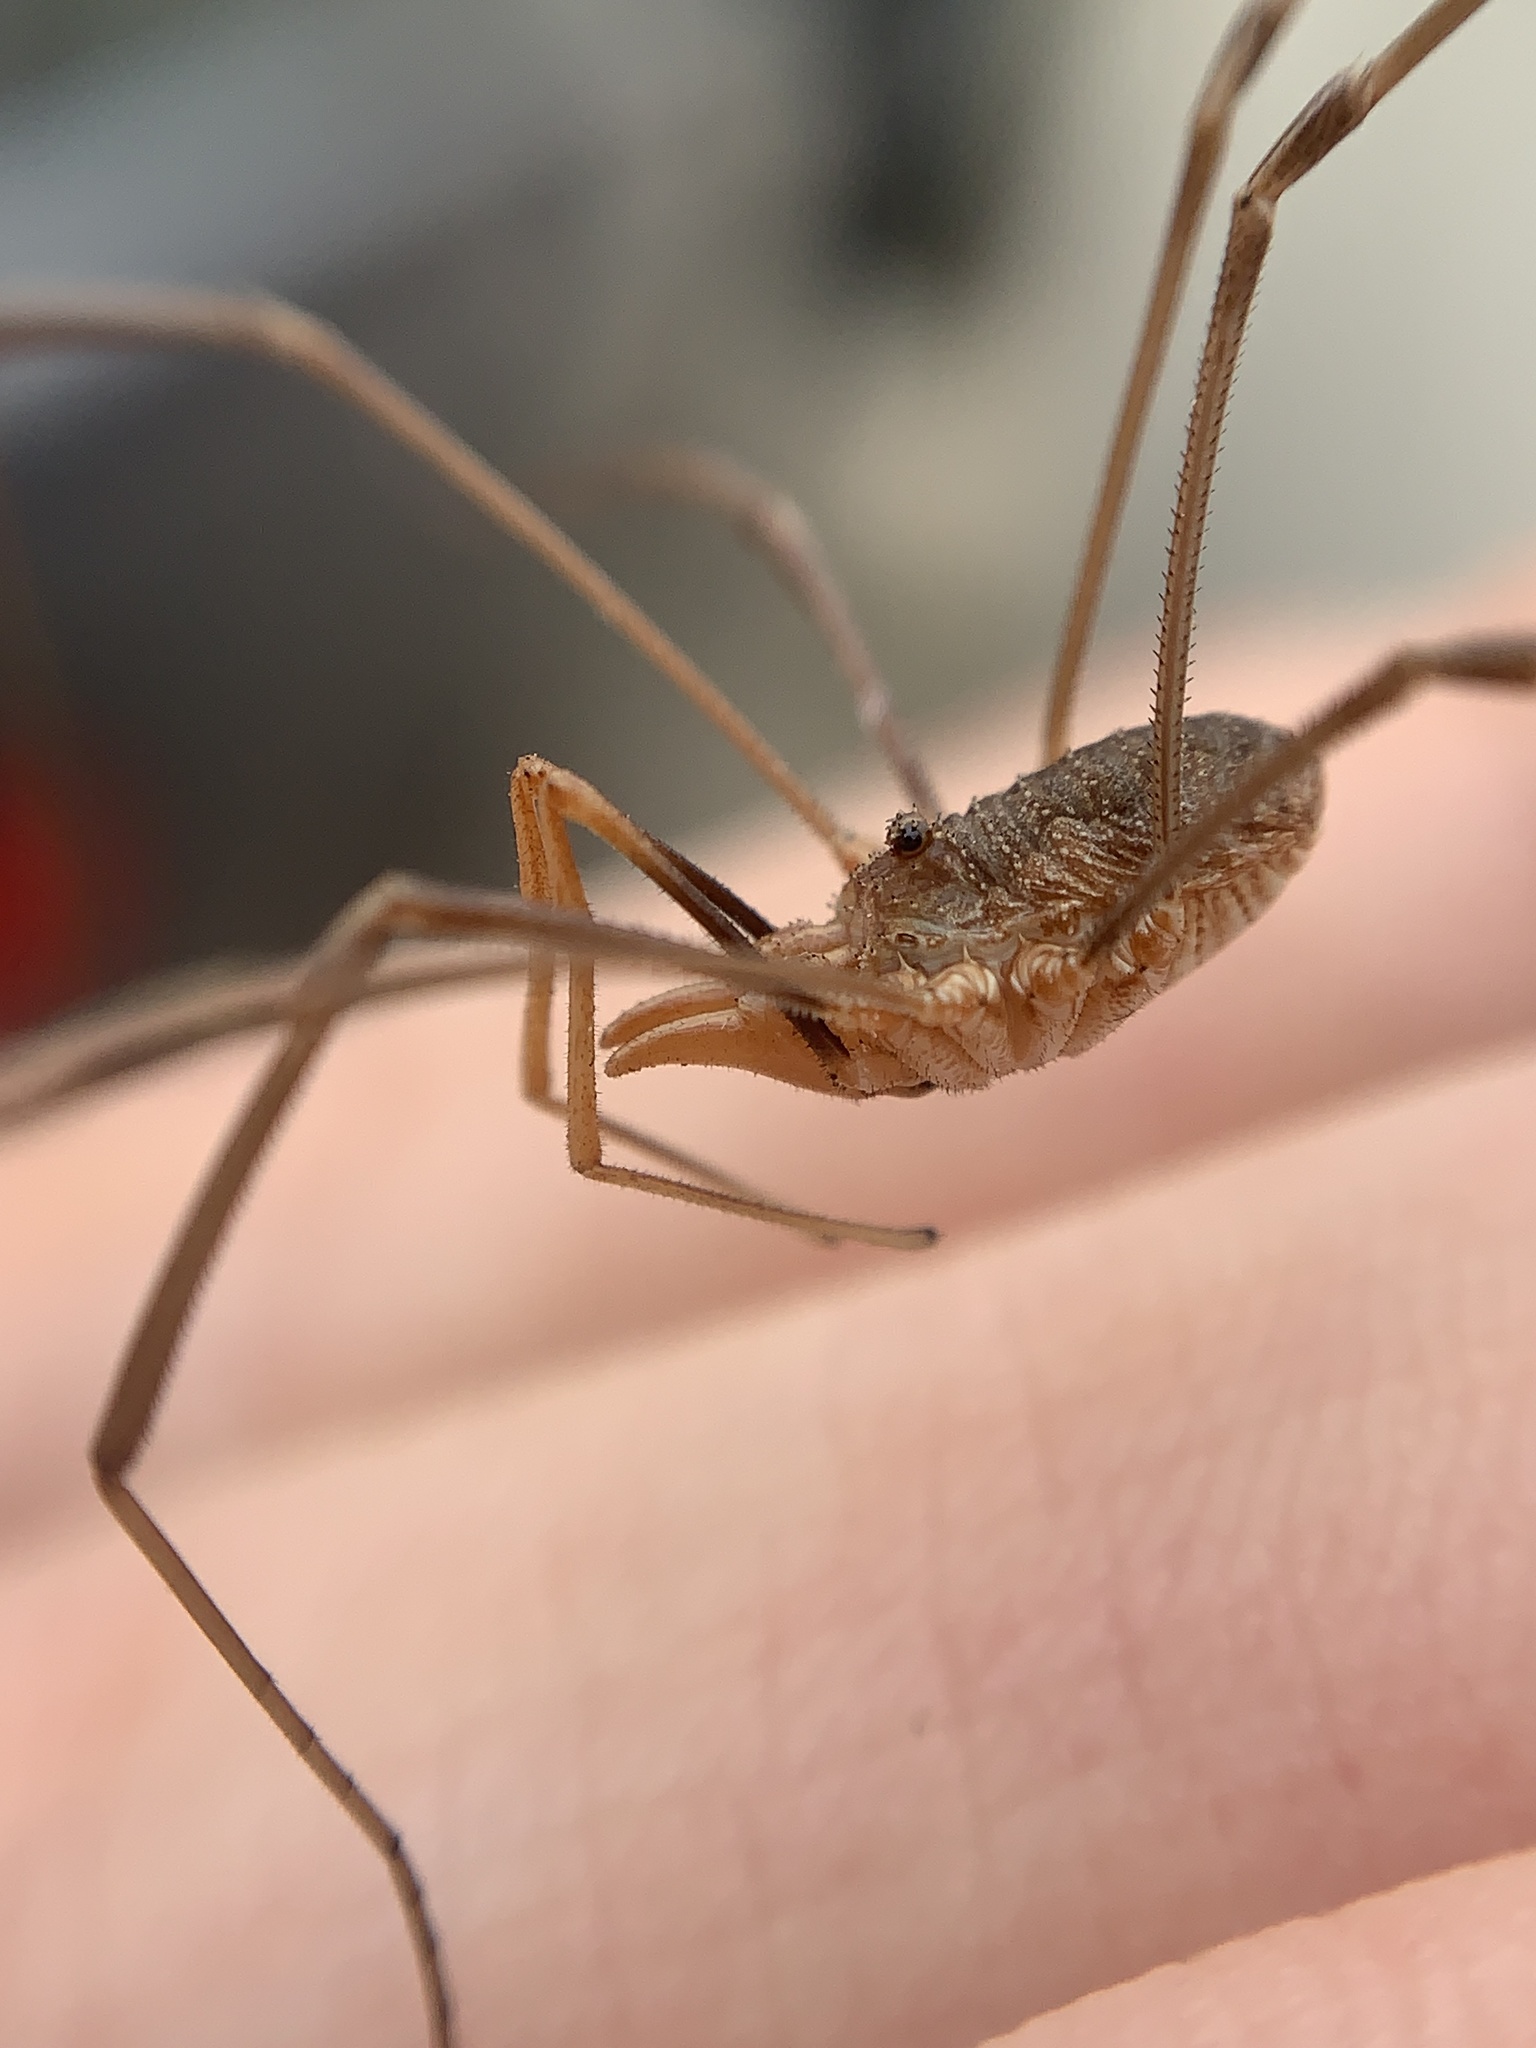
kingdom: Animalia
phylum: Arthropoda
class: Arachnida
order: Opiliones
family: Phalangiidae
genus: Phalangium
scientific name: Phalangium opilio
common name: Daddy longleg
